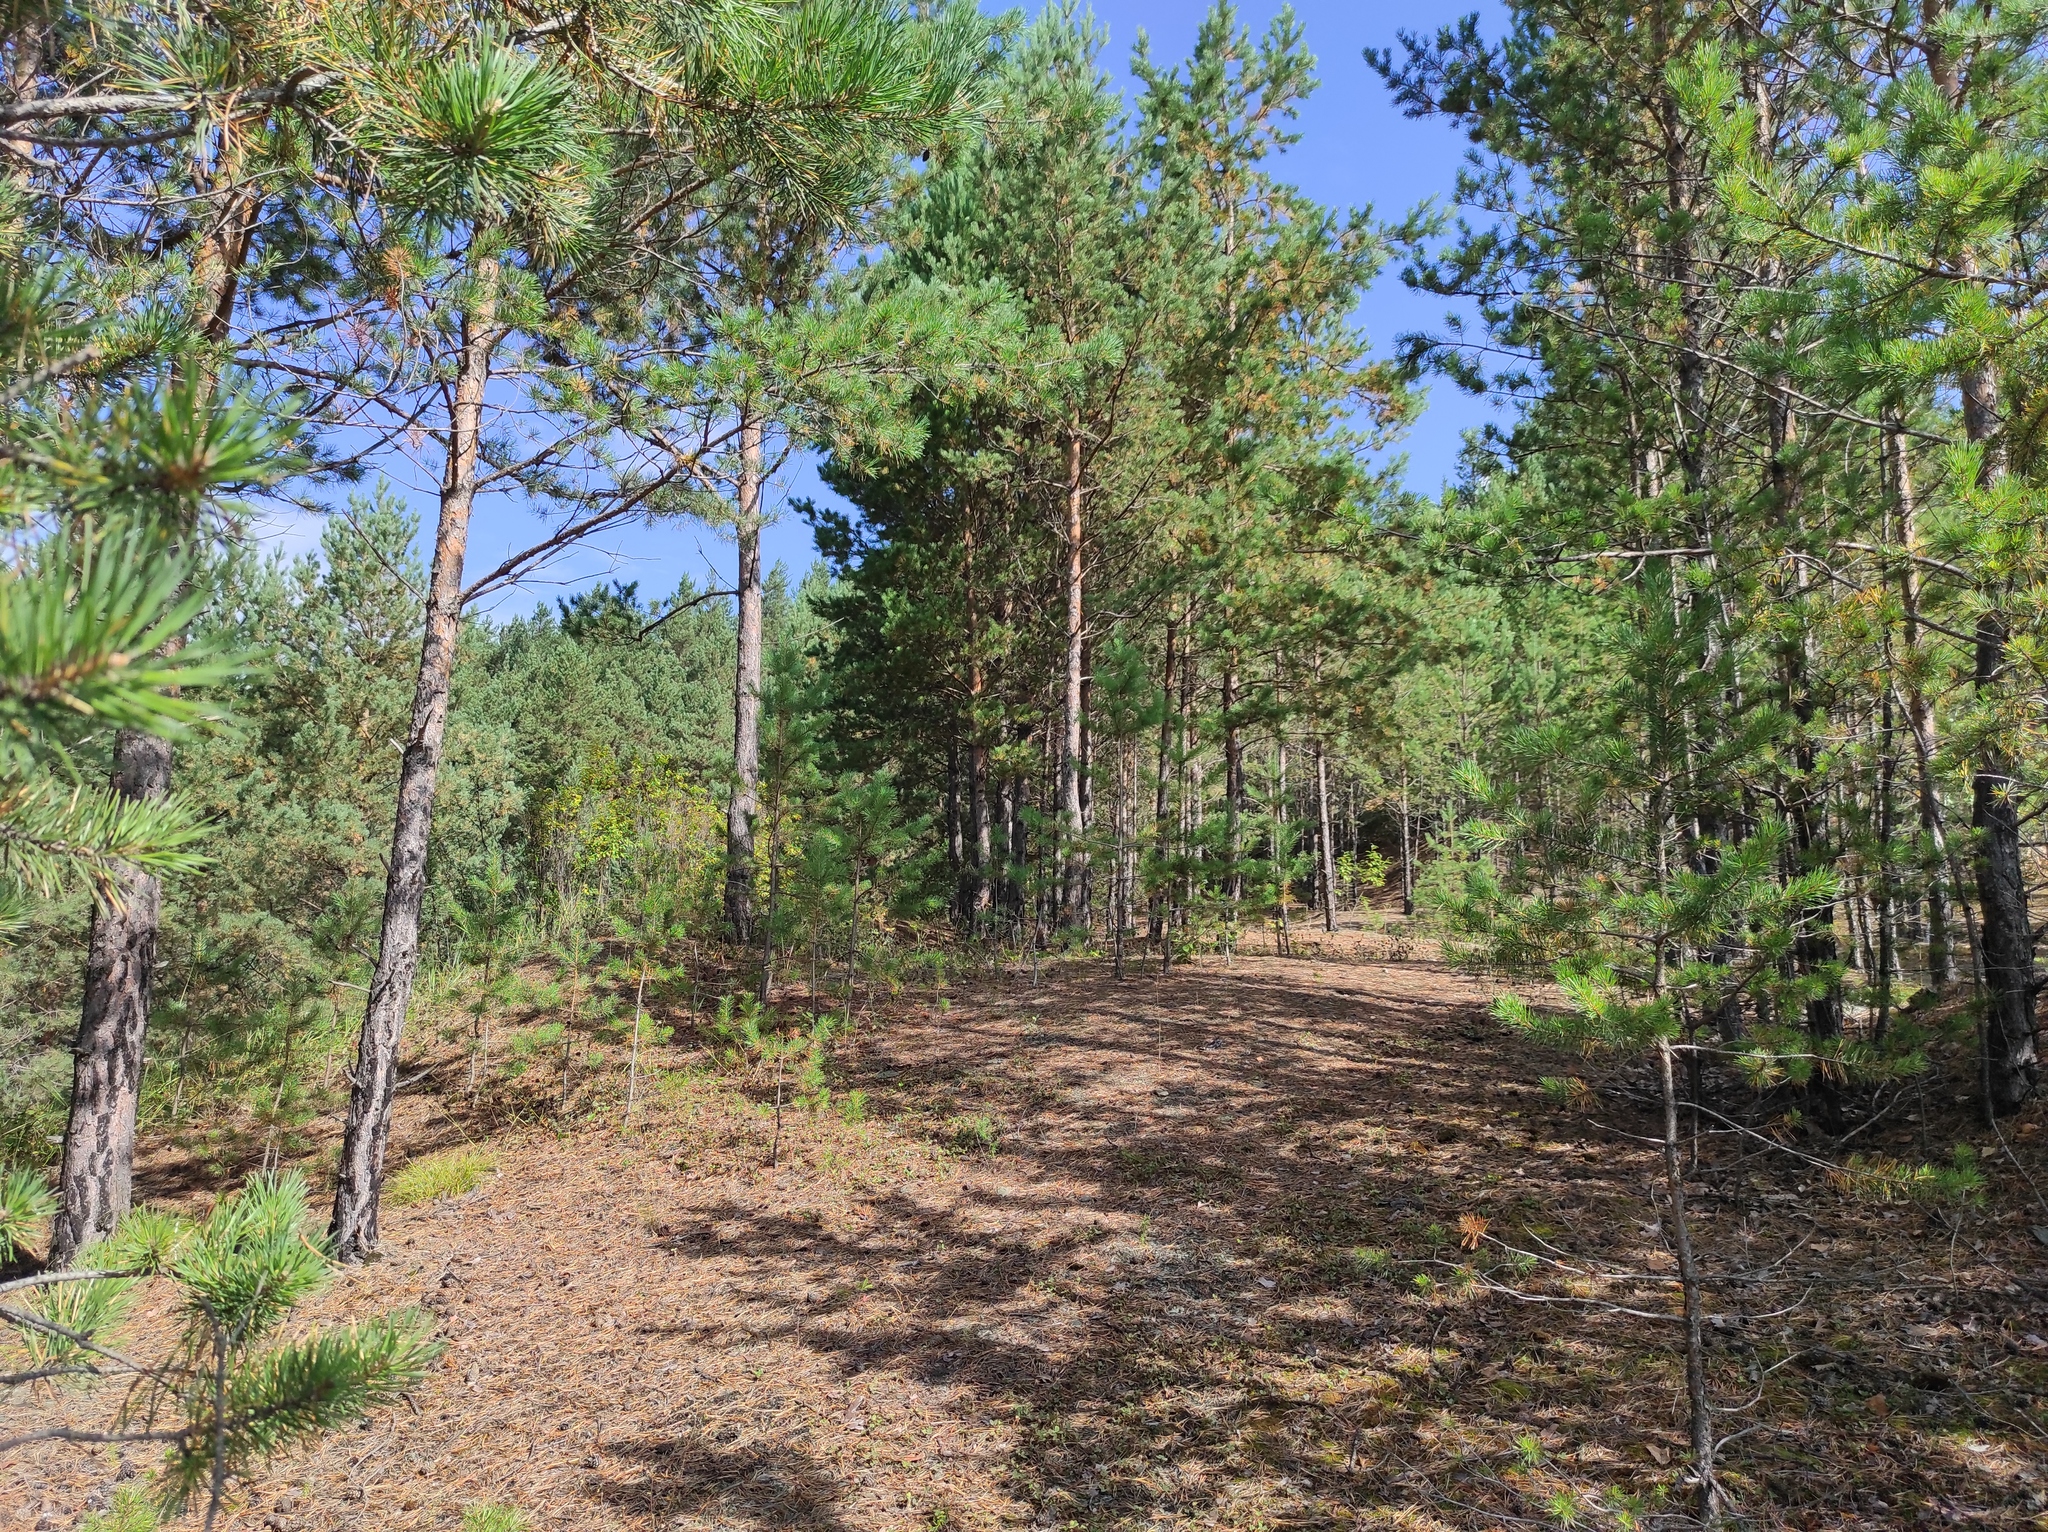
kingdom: Plantae
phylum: Tracheophyta
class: Pinopsida
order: Pinales
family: Pinaceae
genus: Pinus
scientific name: Pinus sylvestris
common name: Scots pine
